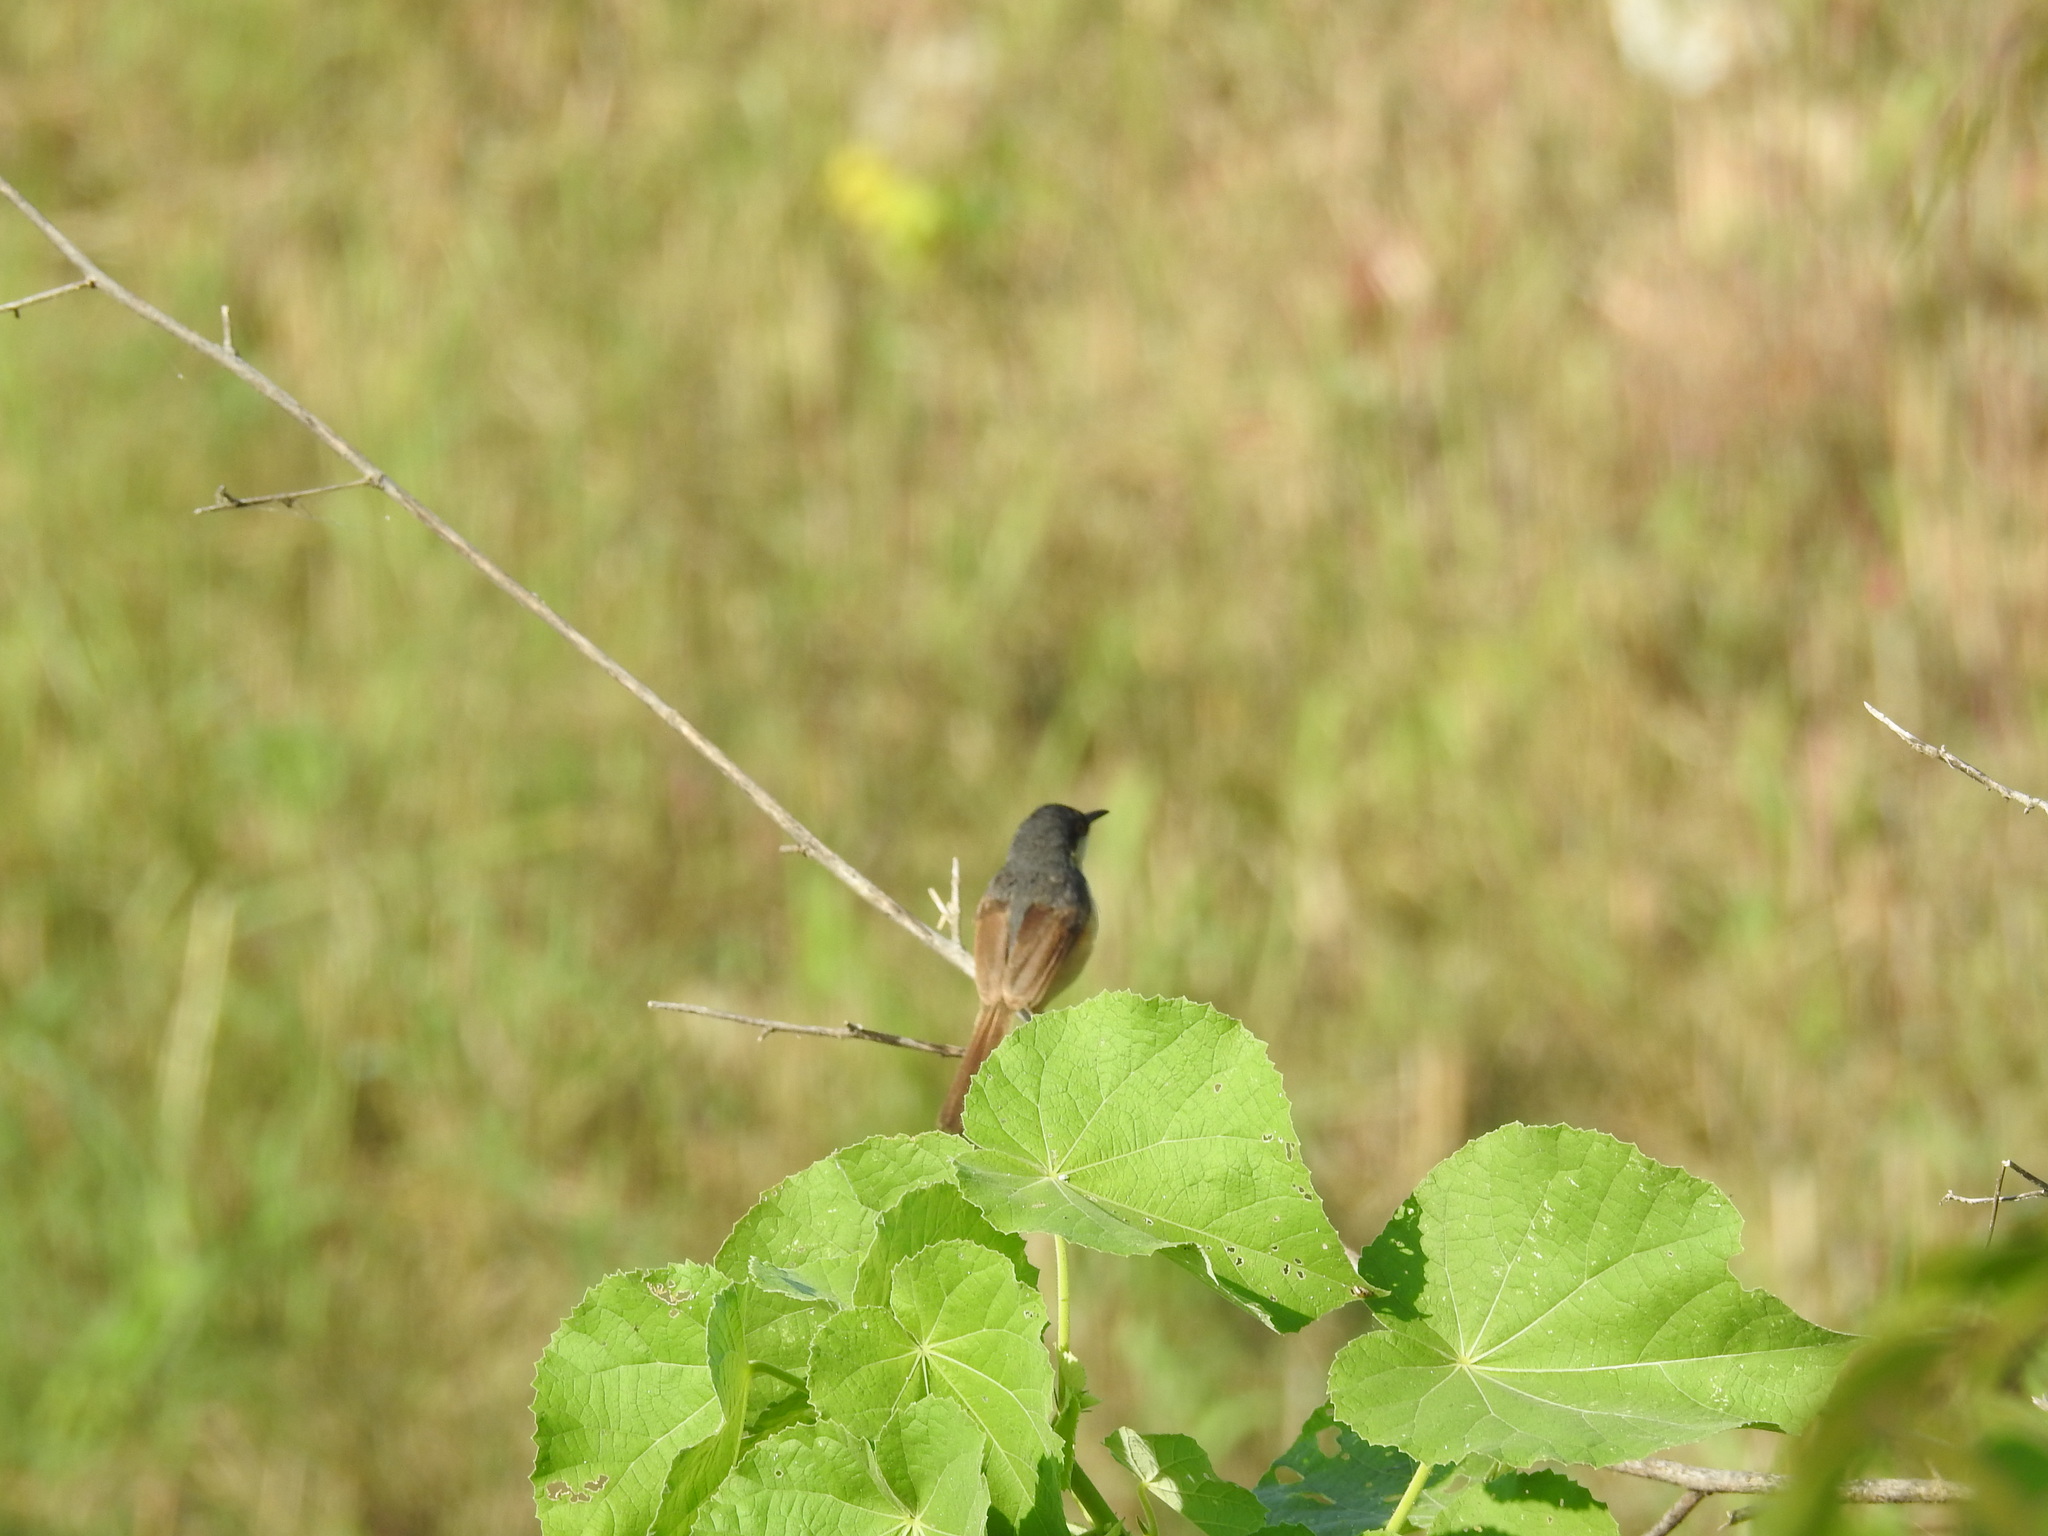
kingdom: Animalia
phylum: Chordata
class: Aves
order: Passeriformes
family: Cisticolidae
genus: Prinia
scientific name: Prinia socialis
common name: Ashy prinia
